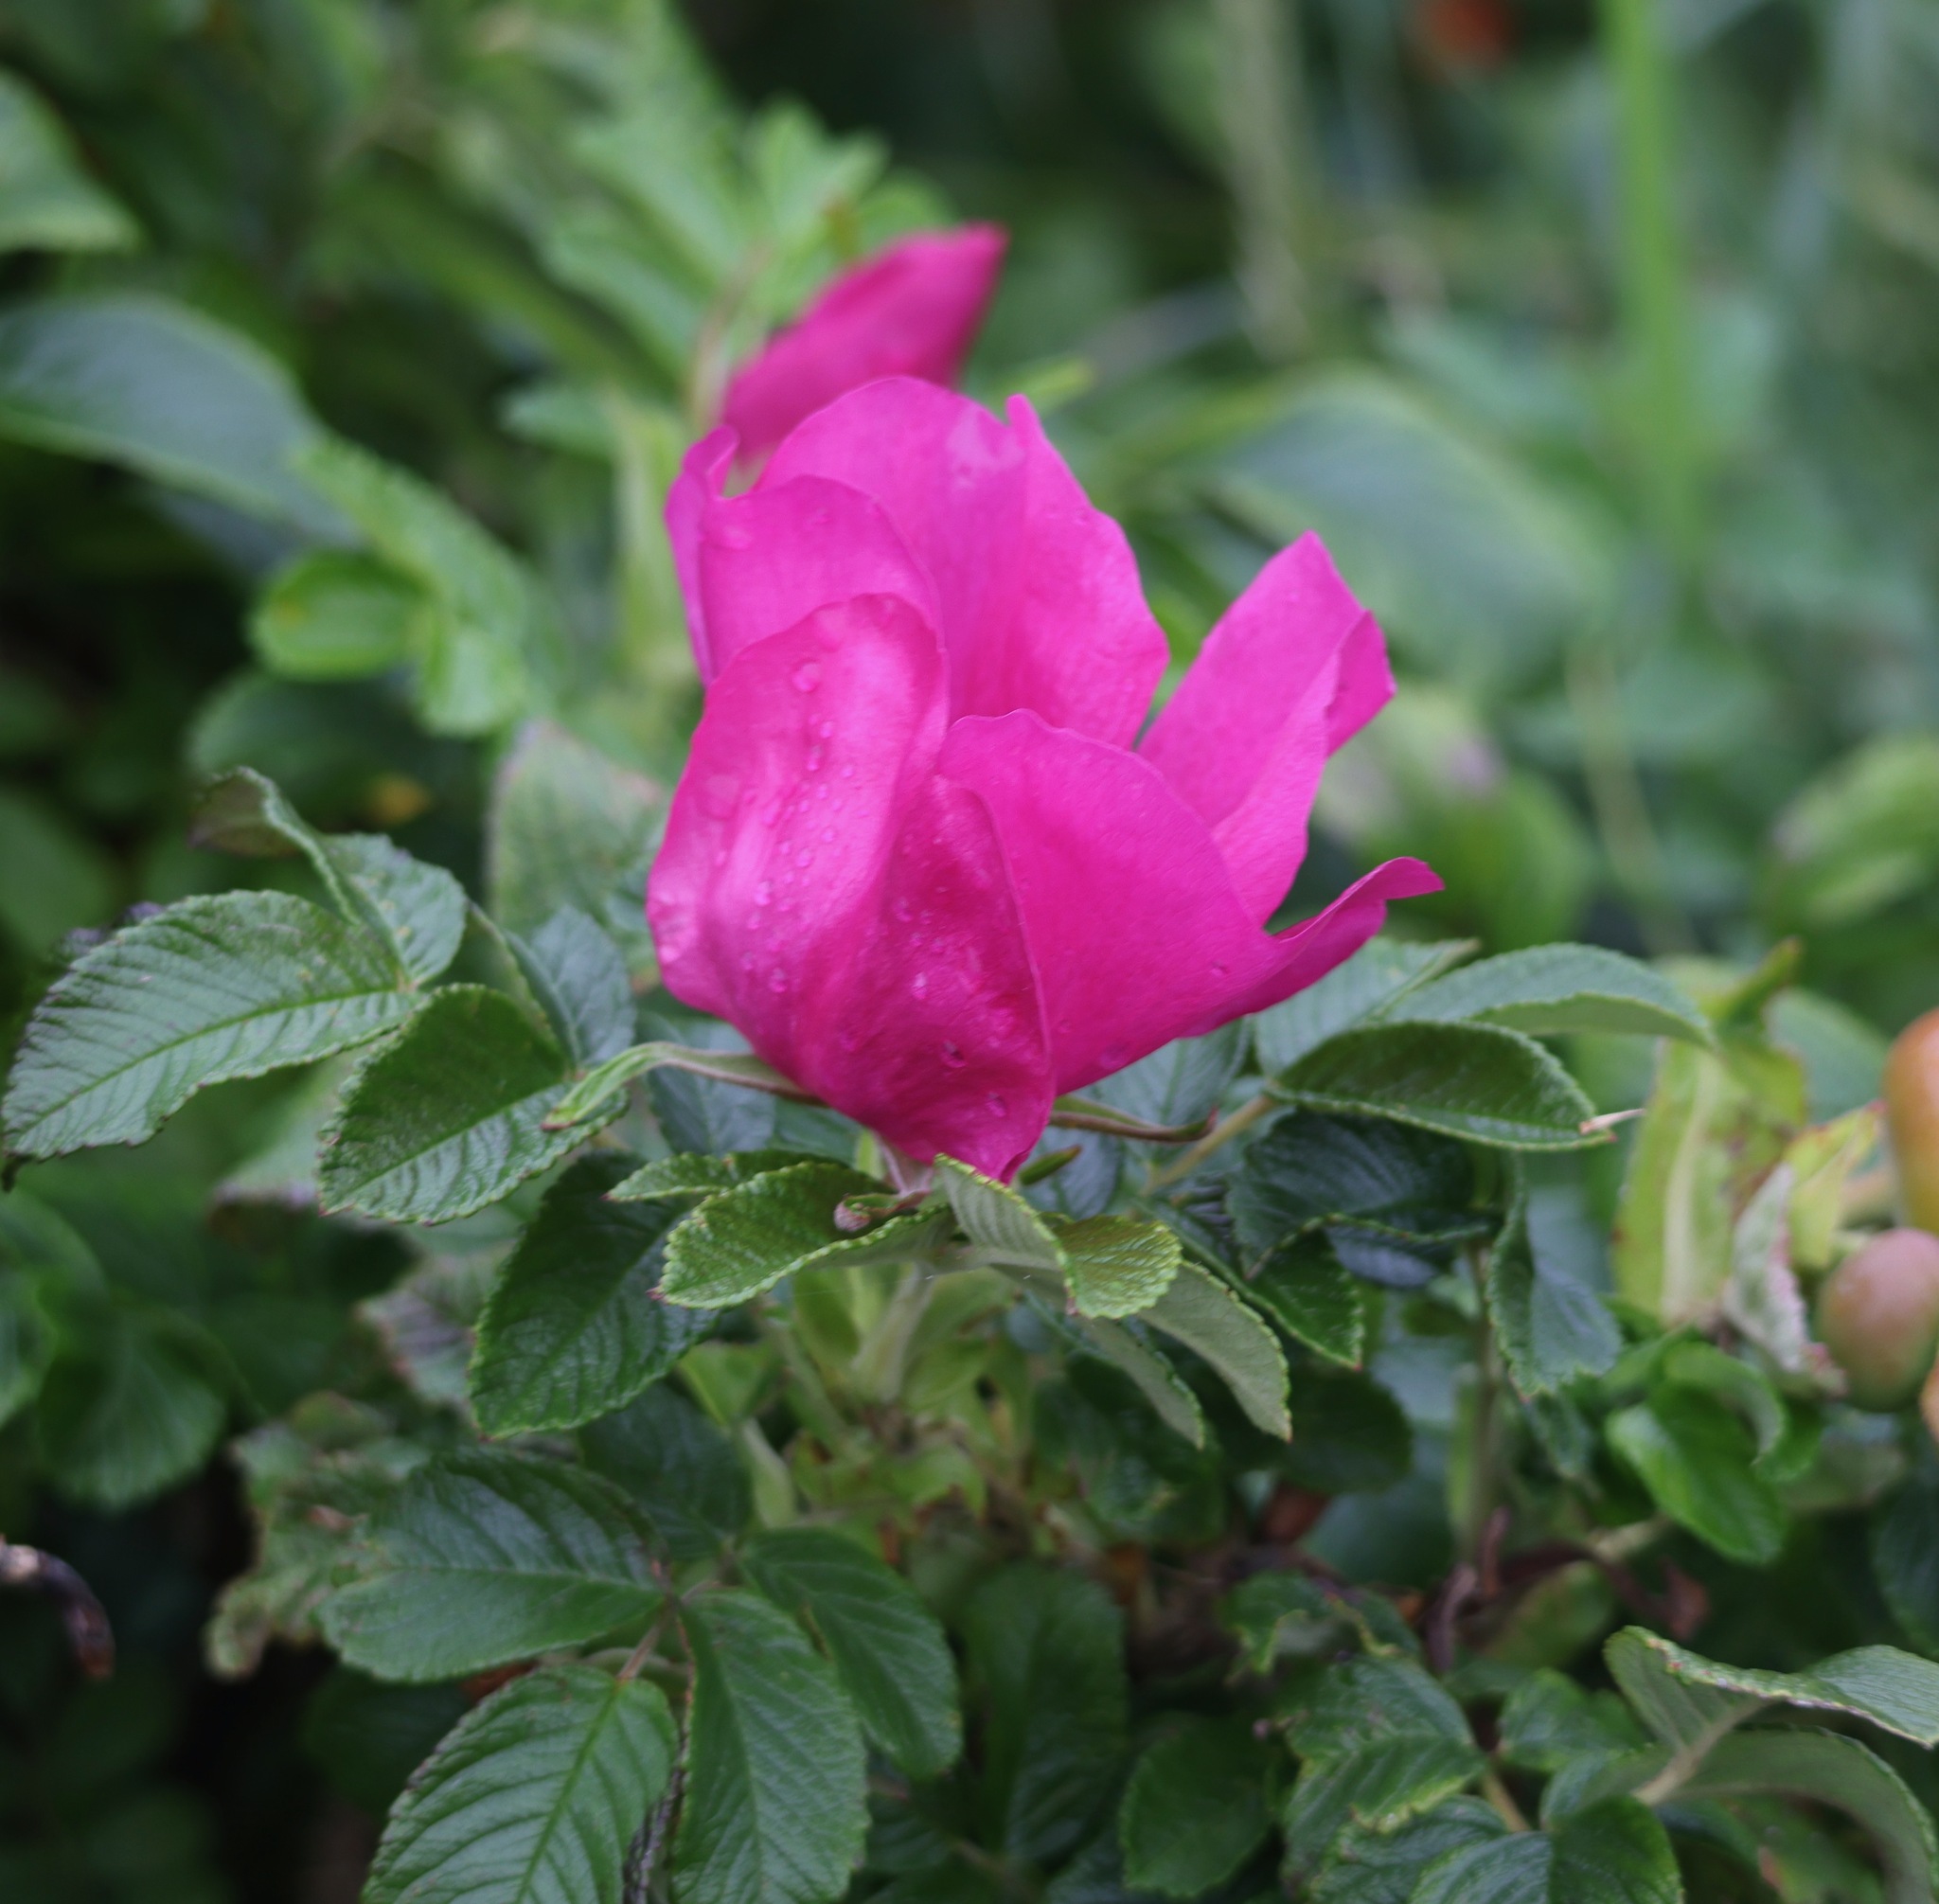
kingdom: Plantae
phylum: Tracheophyta
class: Magnoliopsida
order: Rosales
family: Rosaceae
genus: Rosa
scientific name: Rosa rugosa
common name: Japanese rose
